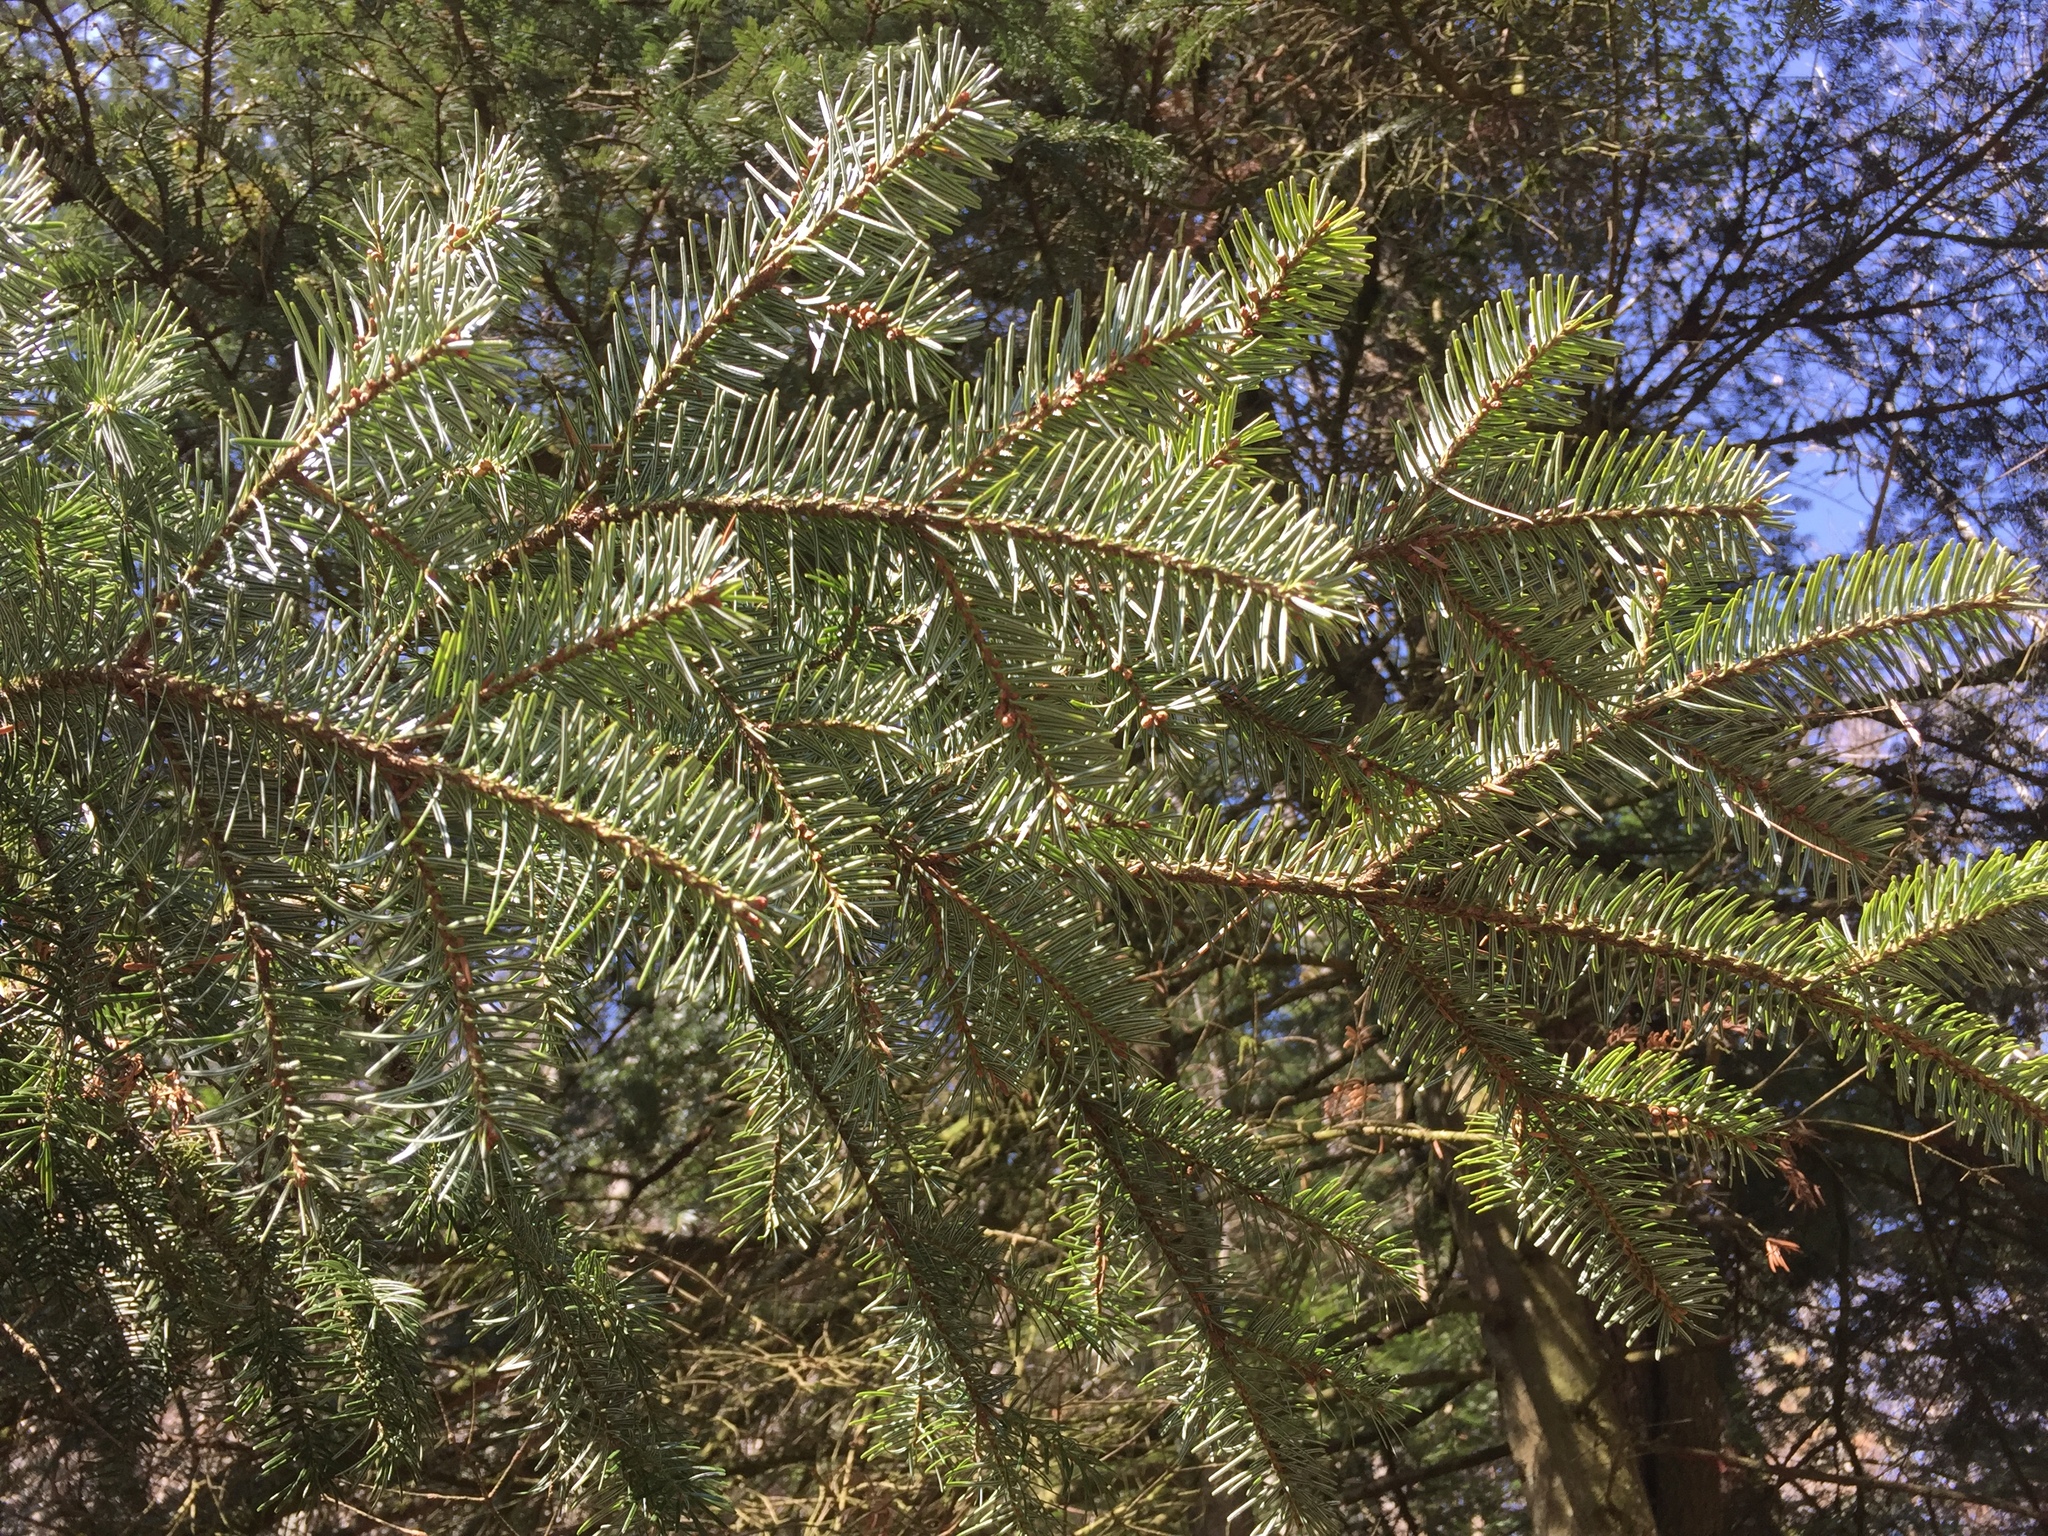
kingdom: Plantae
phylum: Tracheophyta
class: Pinopsida
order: Pinales
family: Pinaceae
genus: Abies
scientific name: Abies alba
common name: Silver fir
